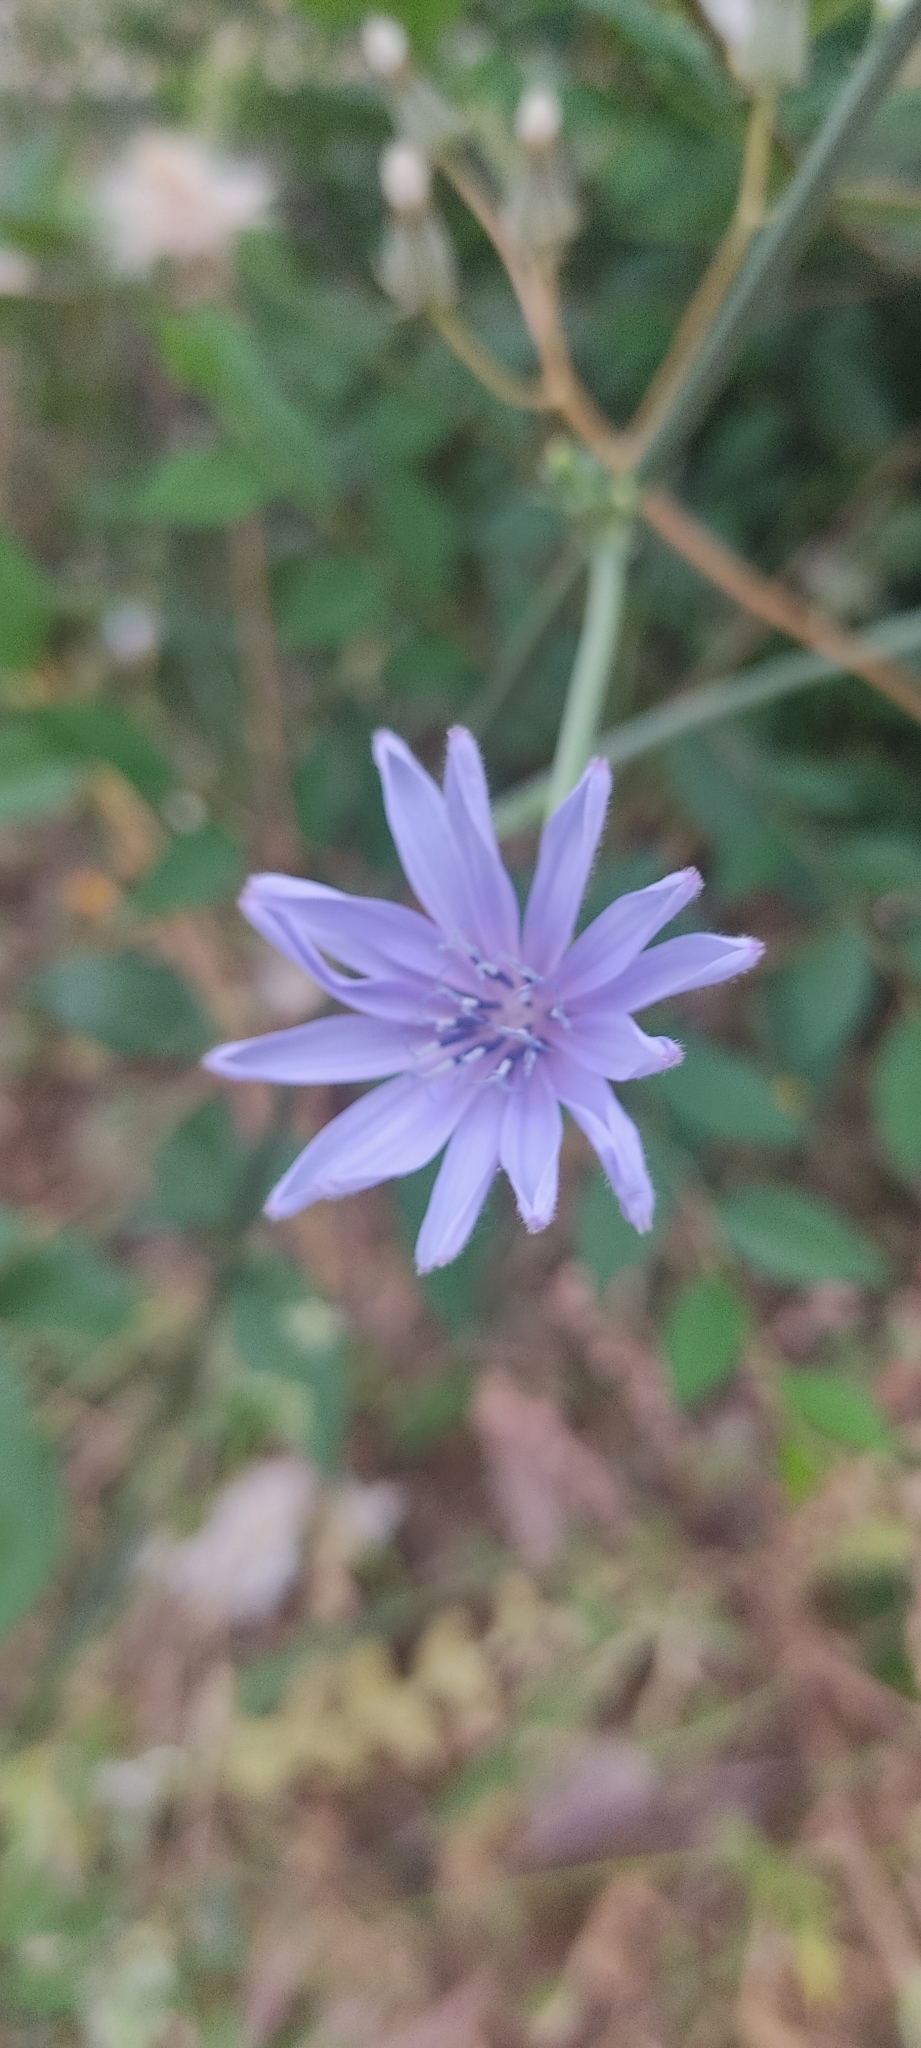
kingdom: Plantae
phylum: Tracheophyta
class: Magnoliopsida
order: Asterales
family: Asteraceae
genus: Cichorium
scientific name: Cichorium intybus
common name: Chicory
